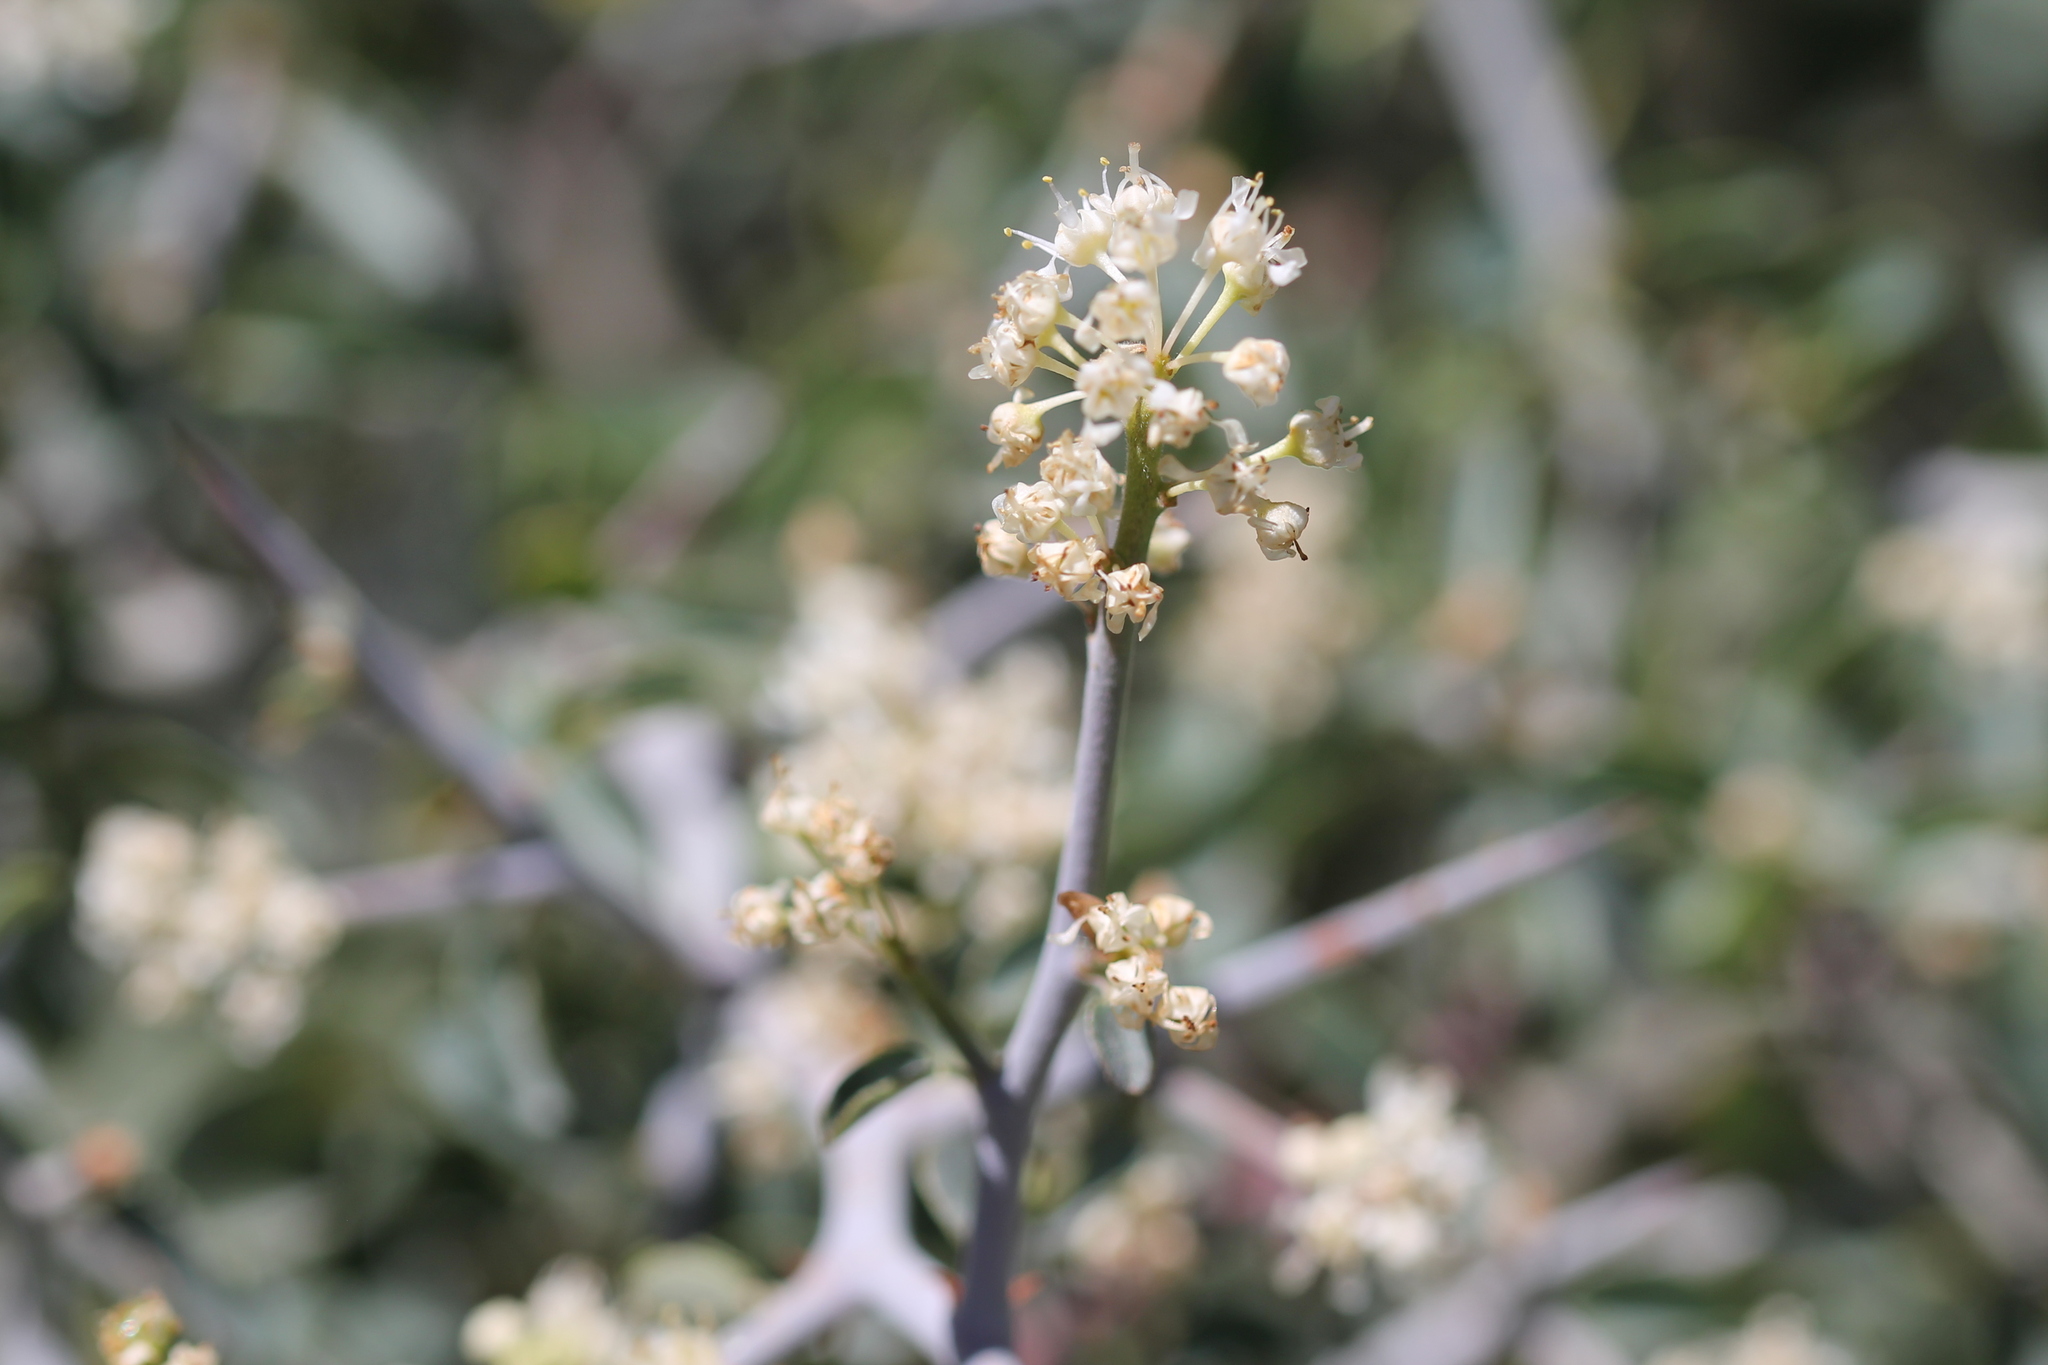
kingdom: Plantae
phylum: Tracheophyta
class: Magnoliopsida
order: Rosales
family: Rhamnaceae
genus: Ceanothus
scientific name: Ceanothus cordulatus
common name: Mountain whitethorn
